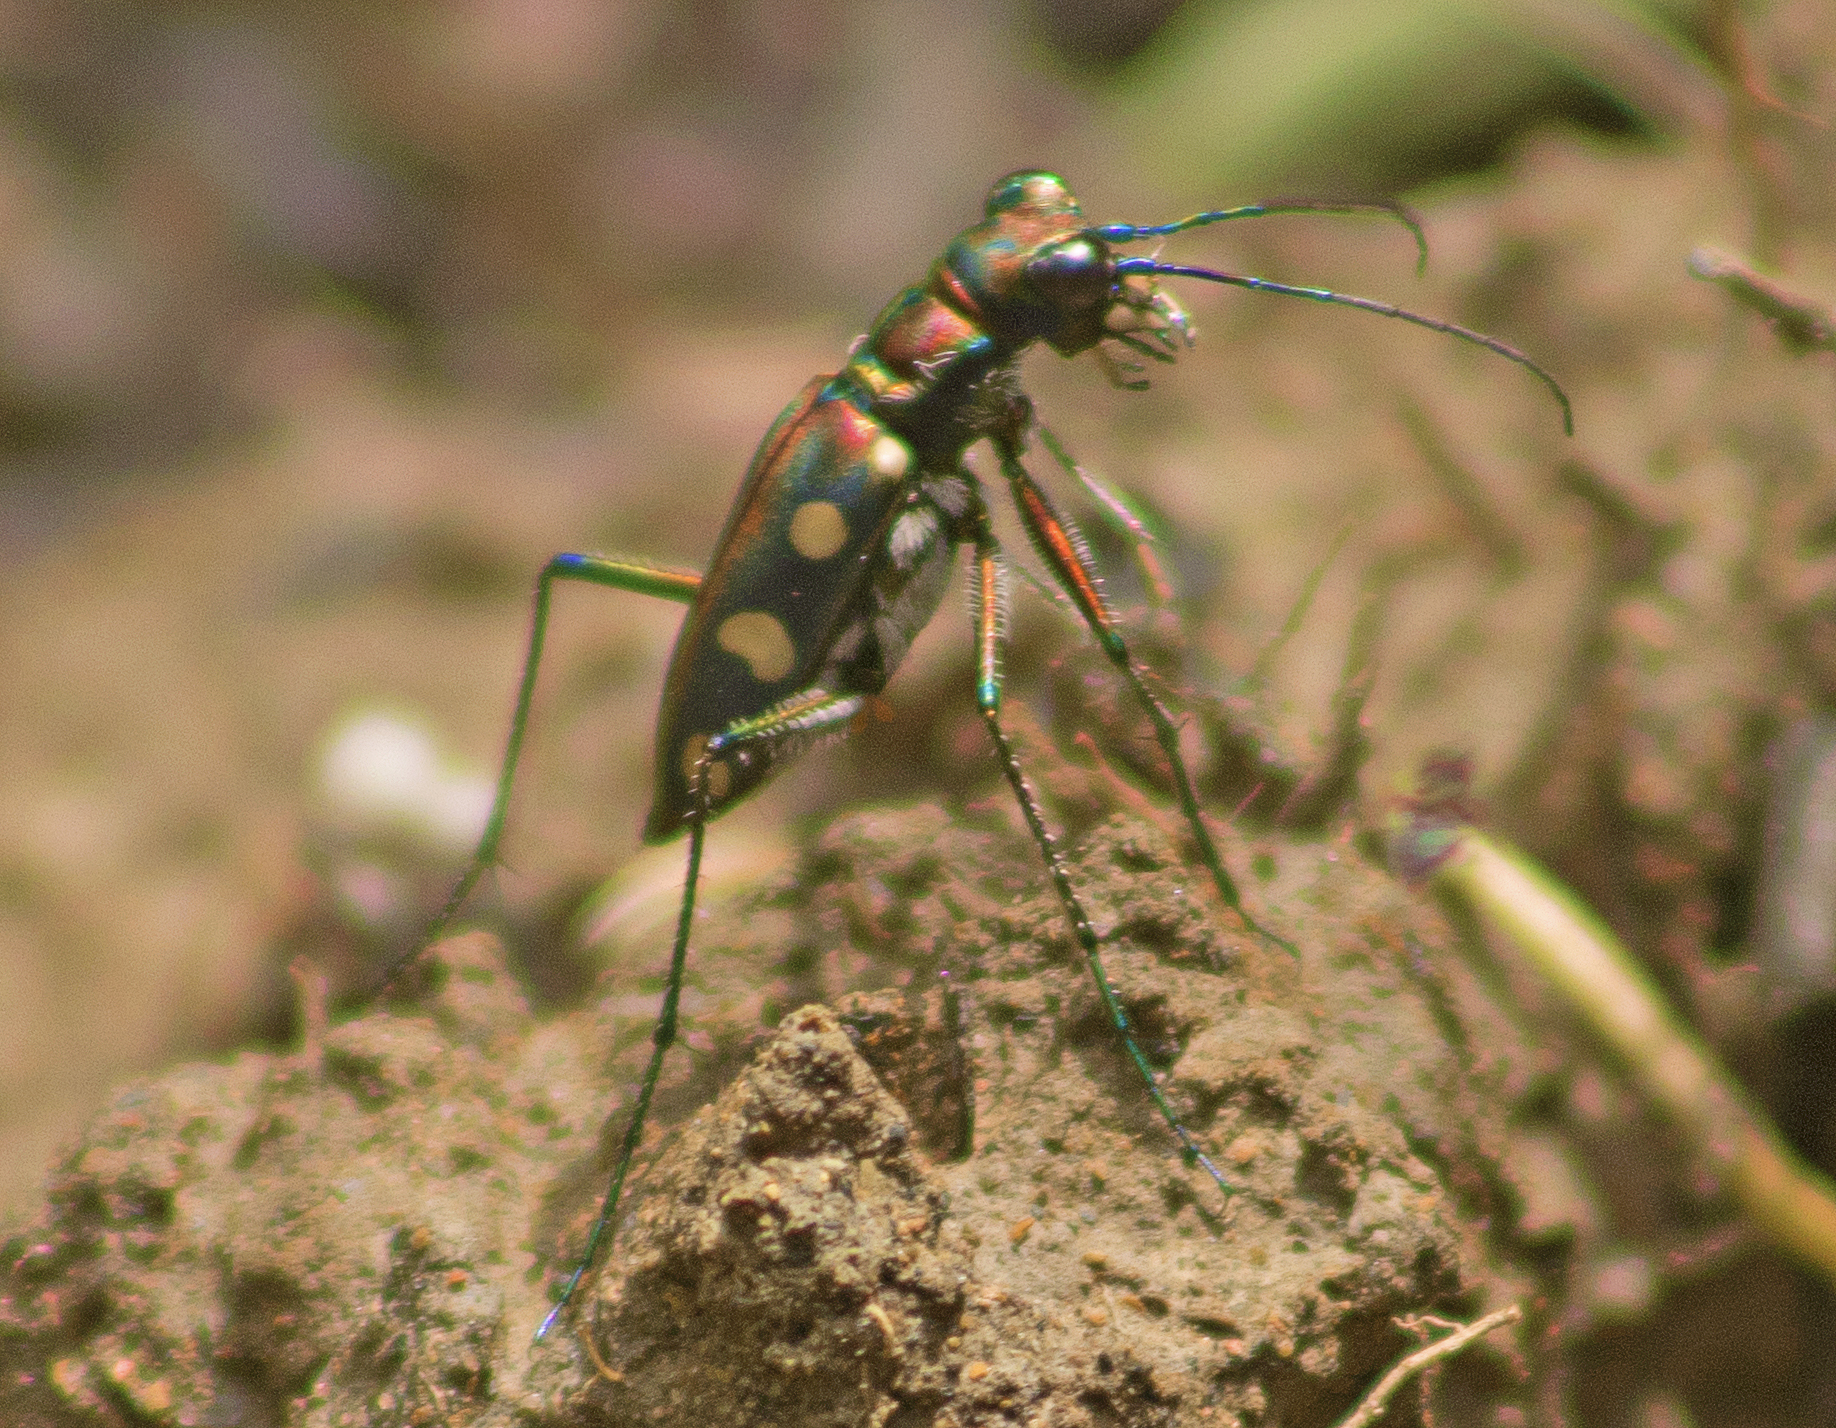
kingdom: Animalia
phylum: Arthropoda
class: Insecta
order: Coleoptera
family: Carabidae
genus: Cicindela
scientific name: Cicindela aurulenta
